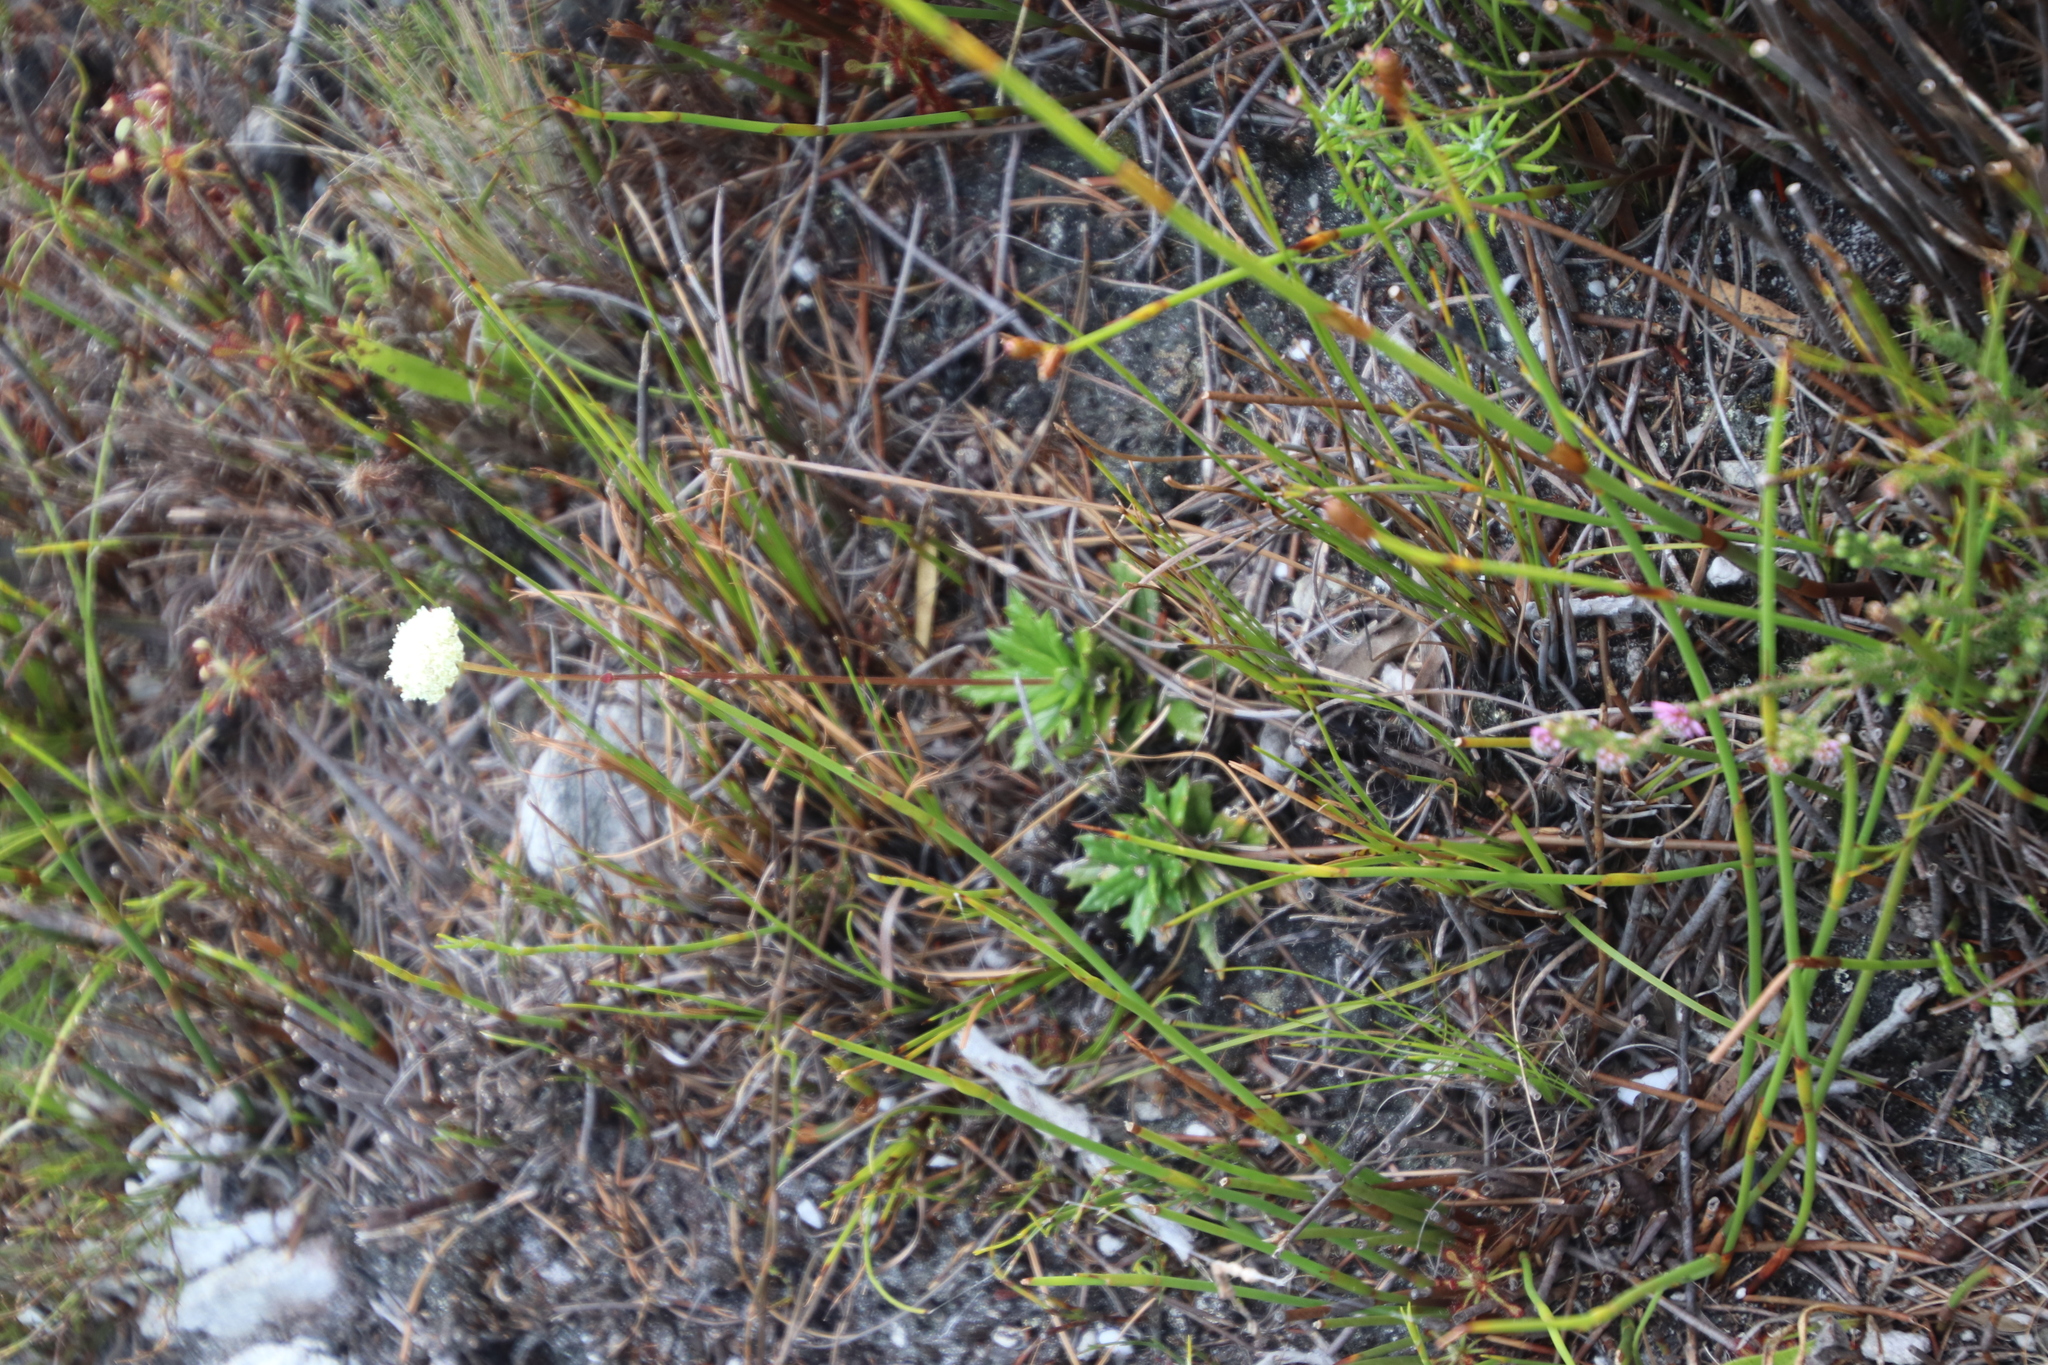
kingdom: Plantae
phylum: Tracheophyta
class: Magnoliopsida
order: Apiales
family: Apiaceae
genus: Hermas
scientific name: Hermas quinquedentata
